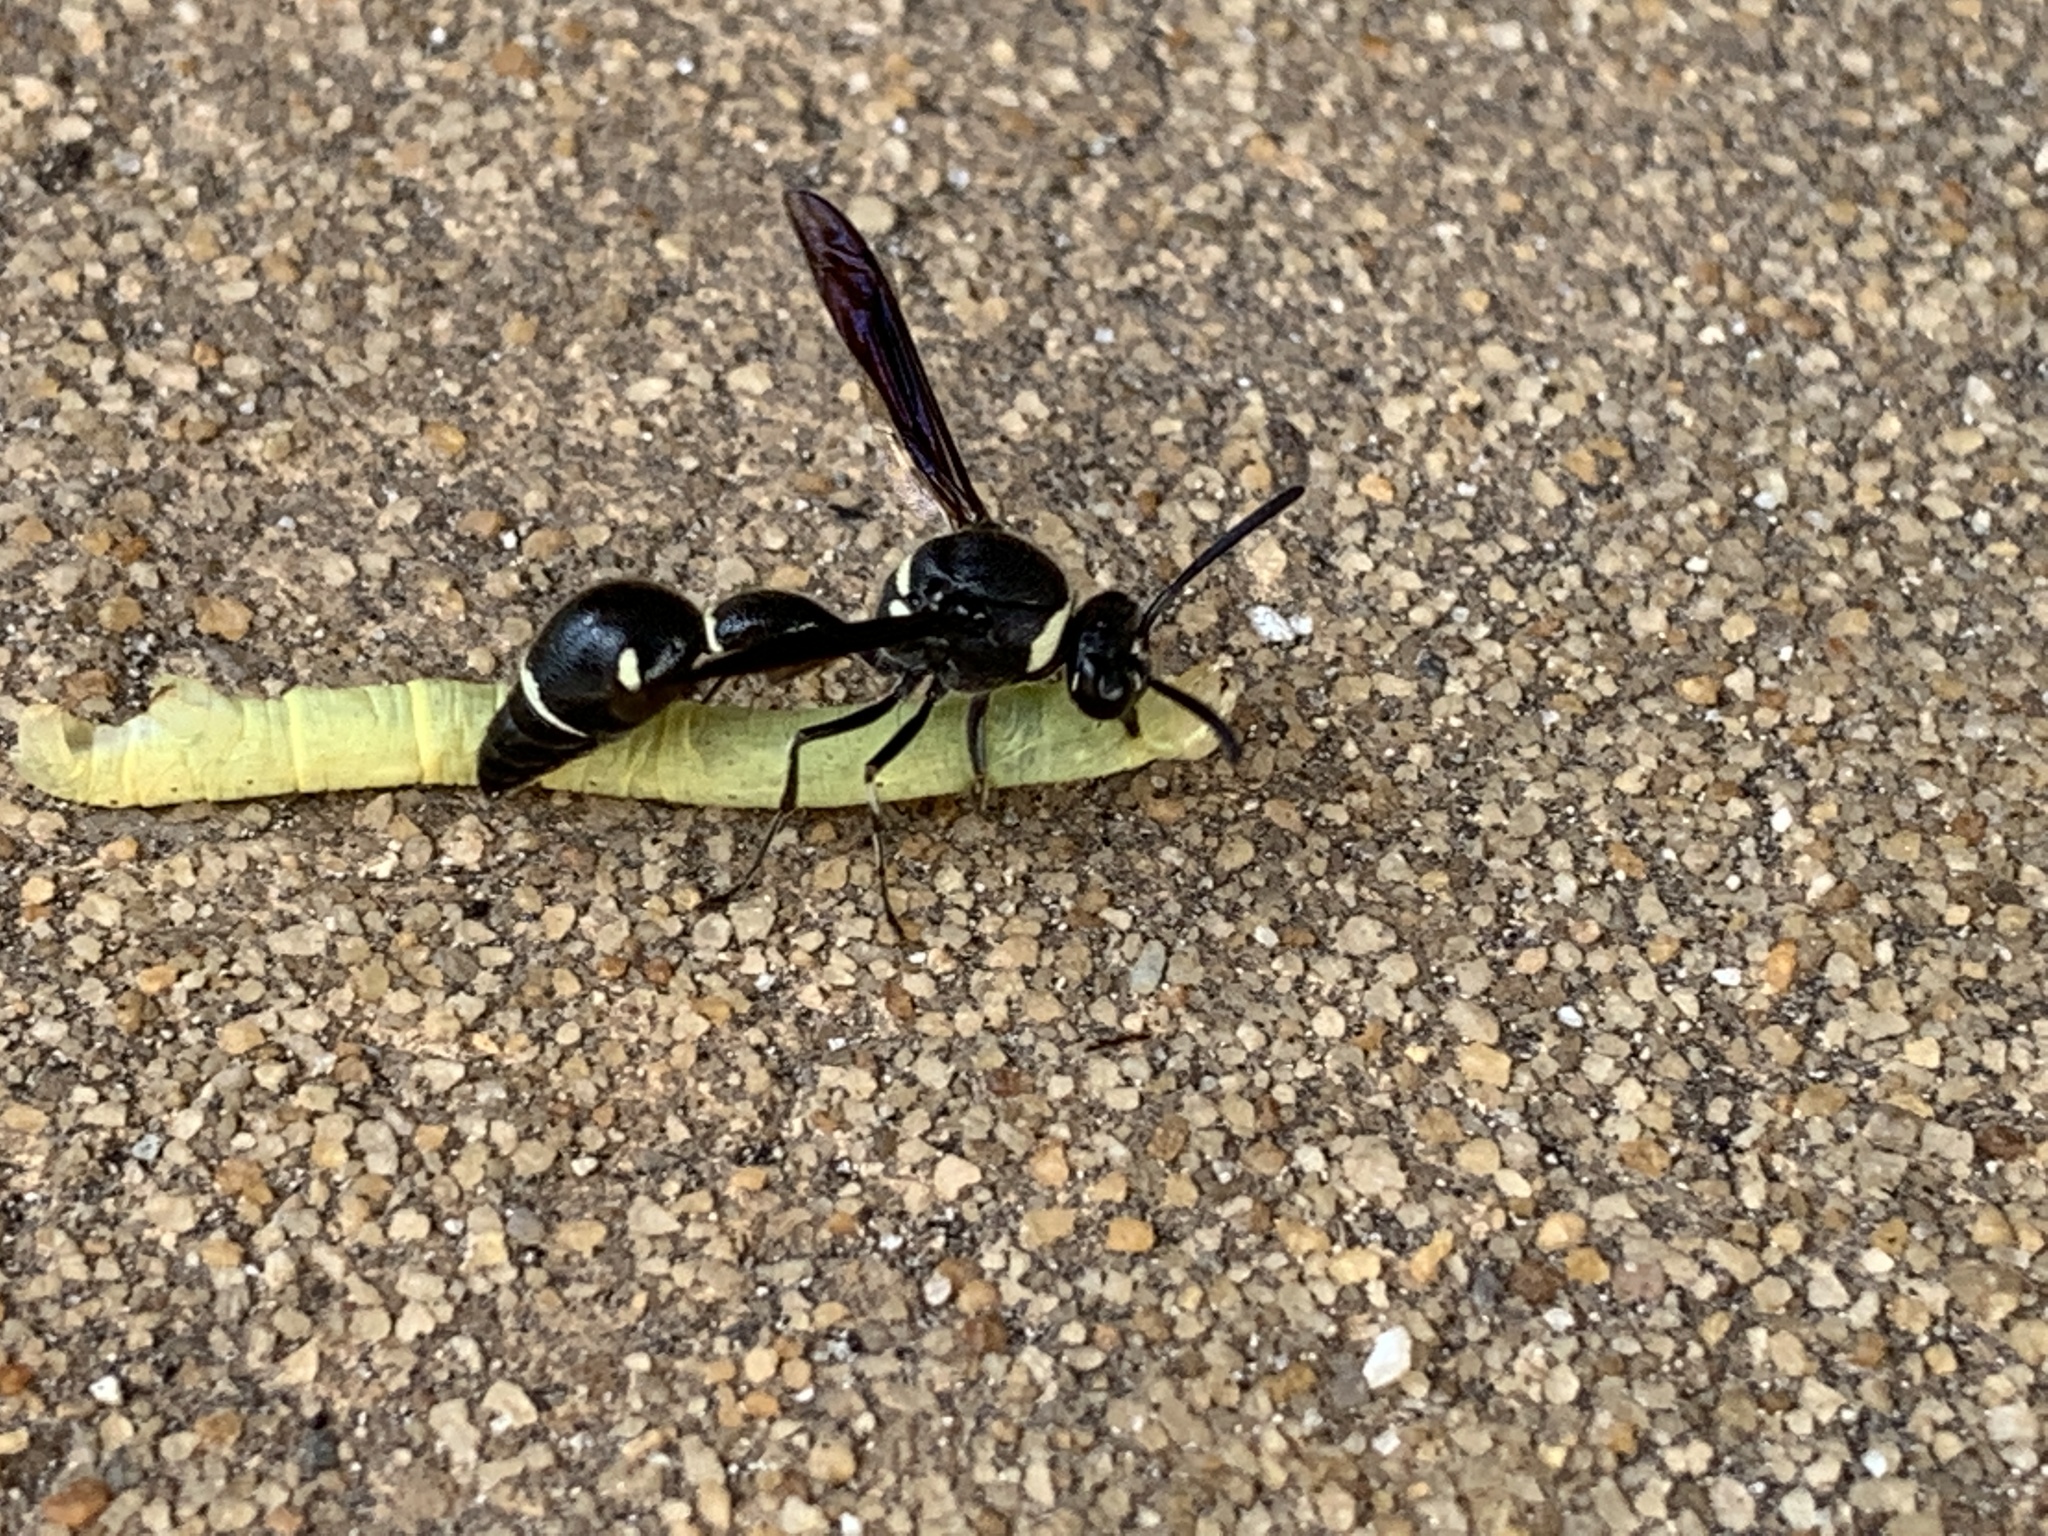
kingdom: Animalia
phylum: Arthropoda
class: Insecta
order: Hymenoptera
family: Vespidae
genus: Eumenes
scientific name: Eumenes fraternus
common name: Fraternal potter wasp
